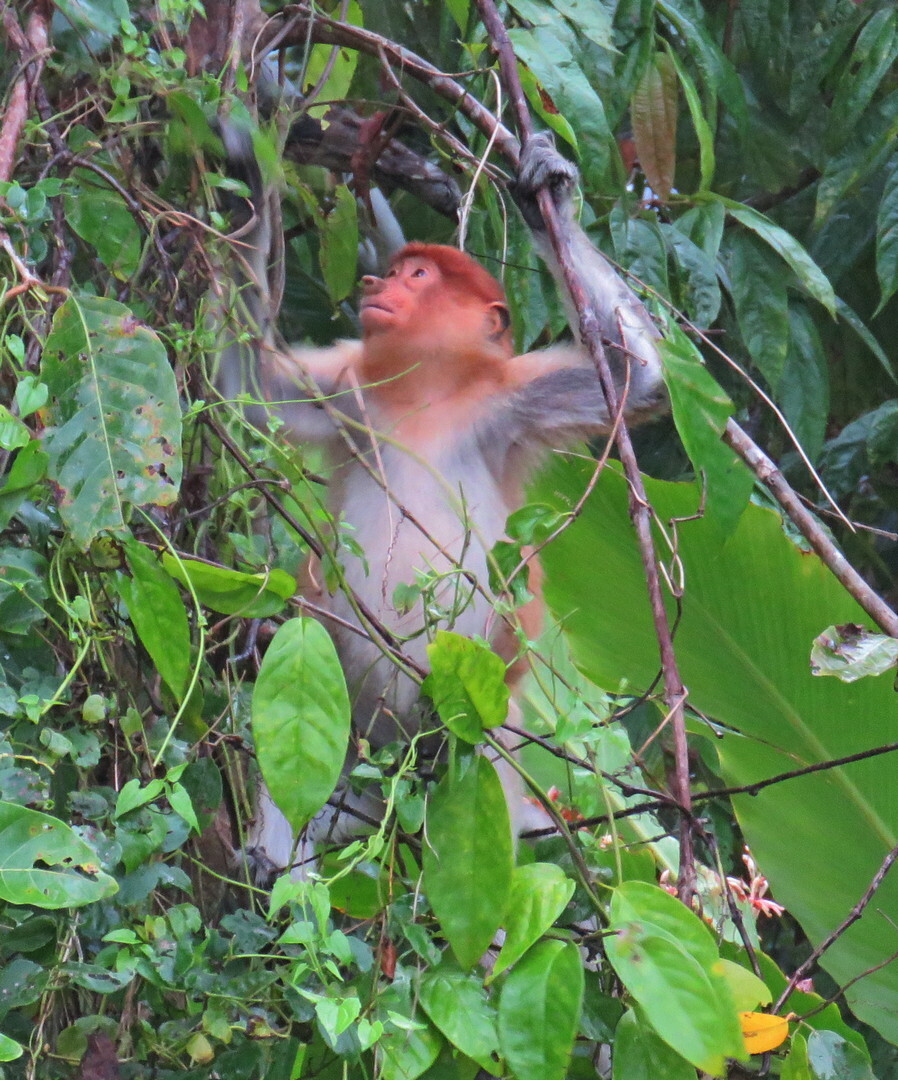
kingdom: Animalia
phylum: Chordata
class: Mammalia
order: Primates
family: Cercopithecidae
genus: Nasalis
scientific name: Nasalis larvatus
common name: Proboscis monkey
